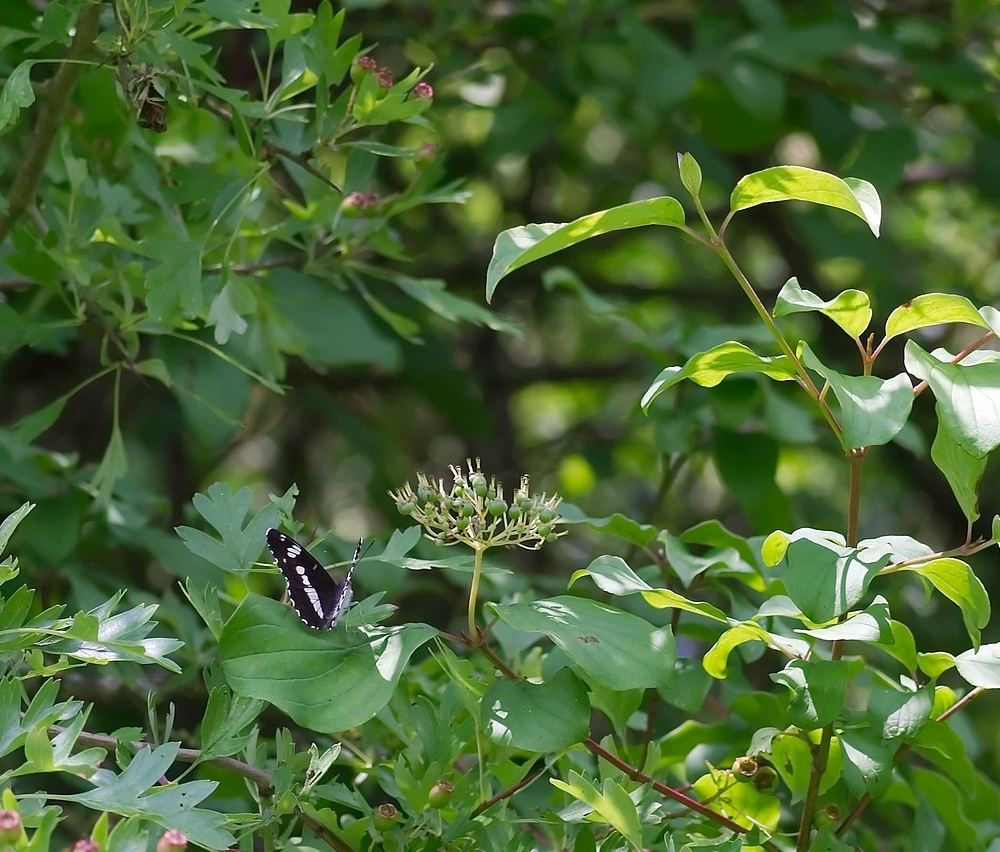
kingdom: Animalia
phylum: Arthropoda
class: Insecta
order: Lepidoptera
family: Nymphalidae
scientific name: Nymphalidae
